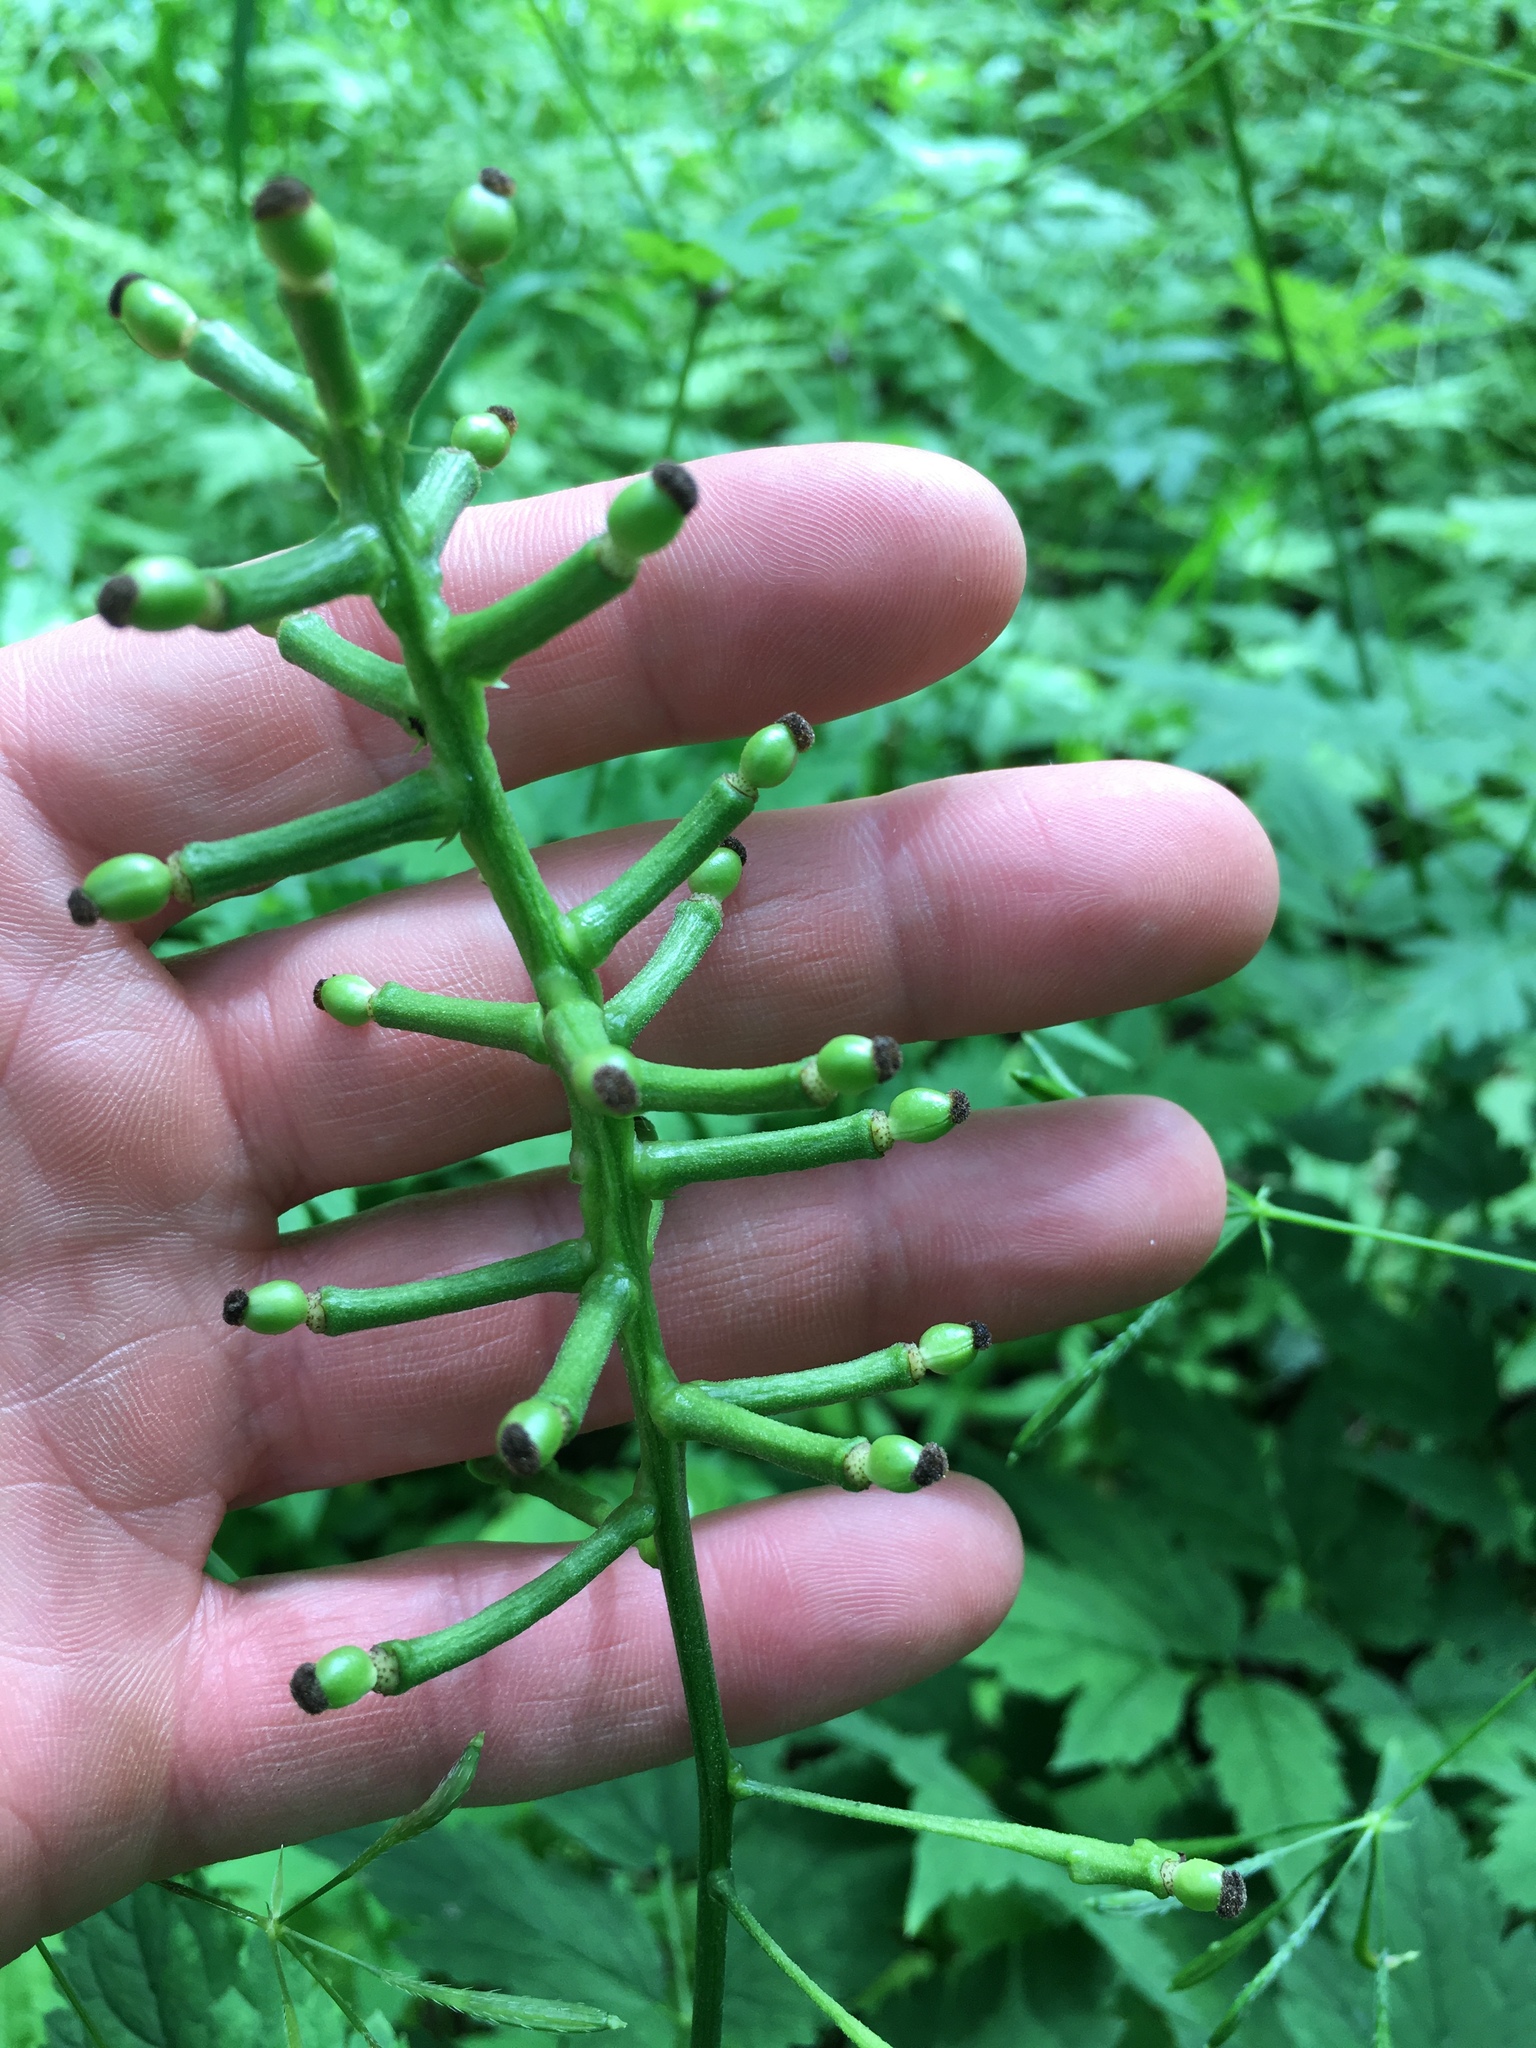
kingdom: Plantae
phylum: Tracheophyta
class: Magnoliopsida
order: Ranunculales
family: Ranunculaceae
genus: Actaea
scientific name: Actaea pachypoda
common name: Doll's-eyes
